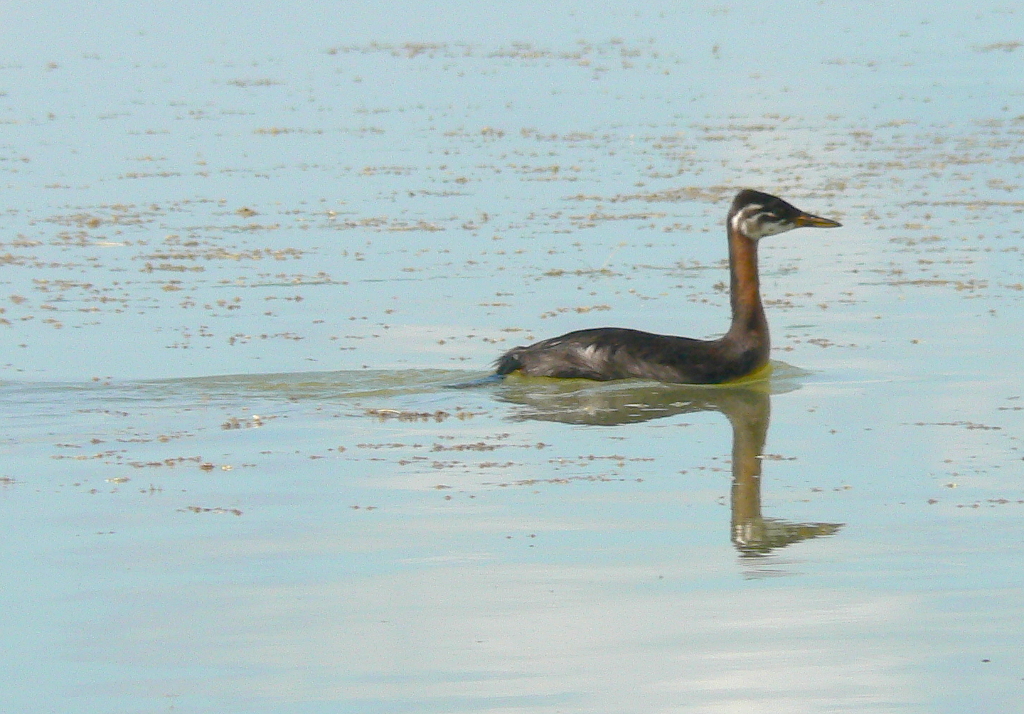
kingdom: Animalia
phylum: Chordata
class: Aves
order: Podicipediformes
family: Podicipedidae
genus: Podiceps
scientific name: Podiceps grisegena
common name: Red-necked grebe
